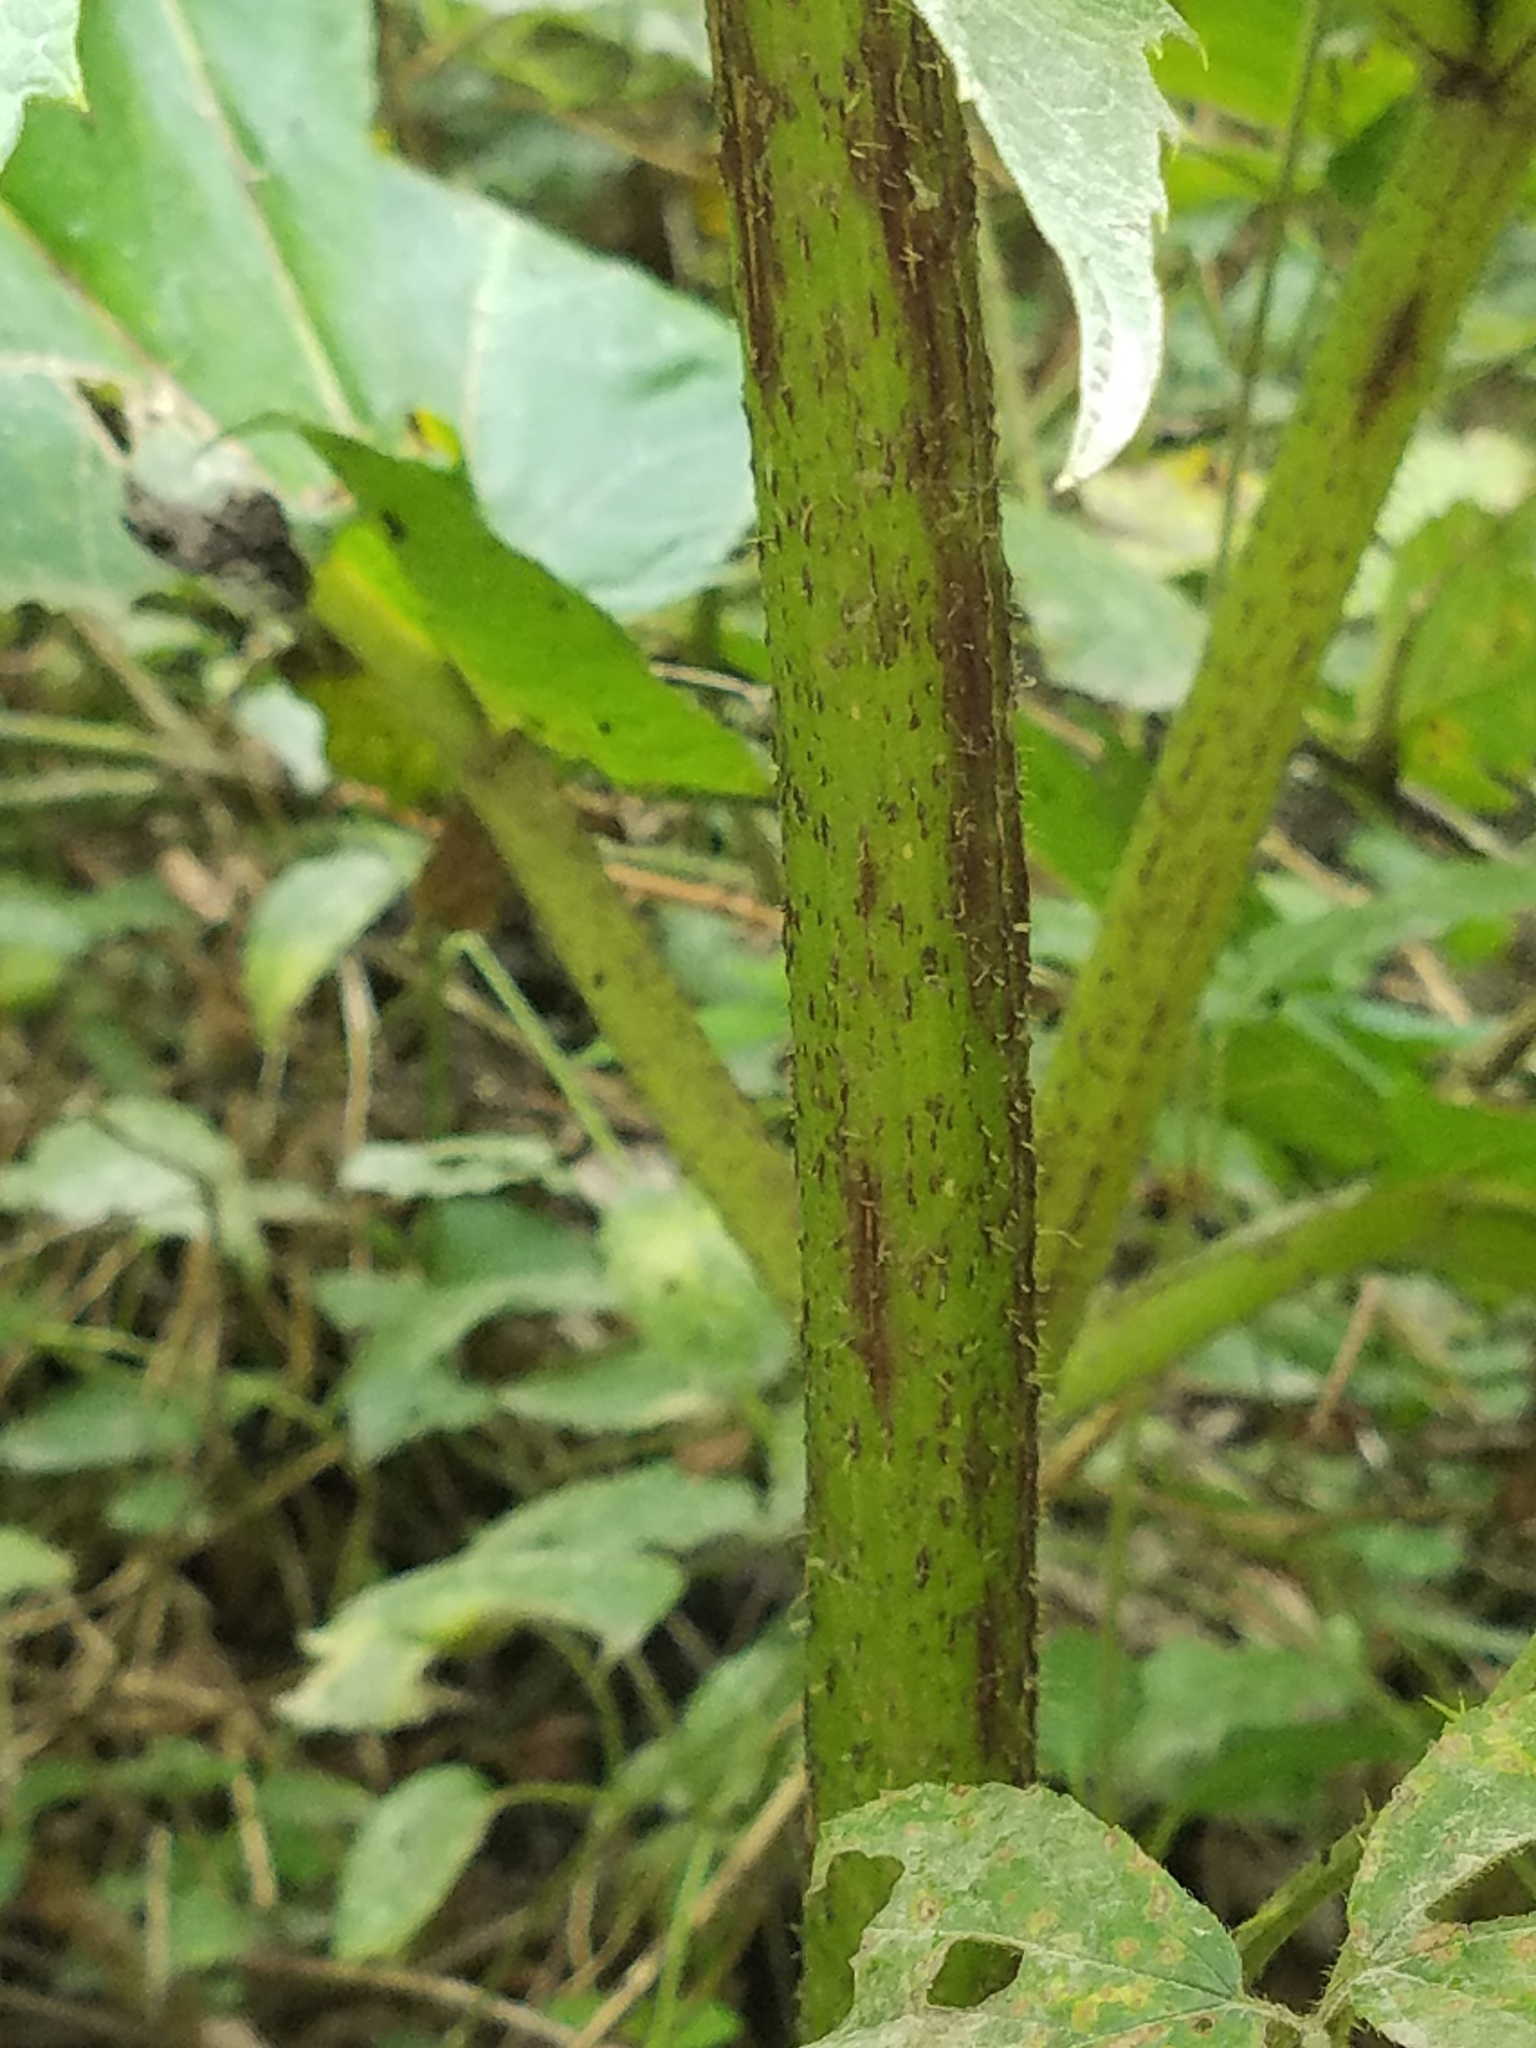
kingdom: Plantae
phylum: Tracheophyta
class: Magnoliopsida
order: Apiales
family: Apiaceae
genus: Heracleum
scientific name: Heracleum mantegazzianum
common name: Giant hogweed
